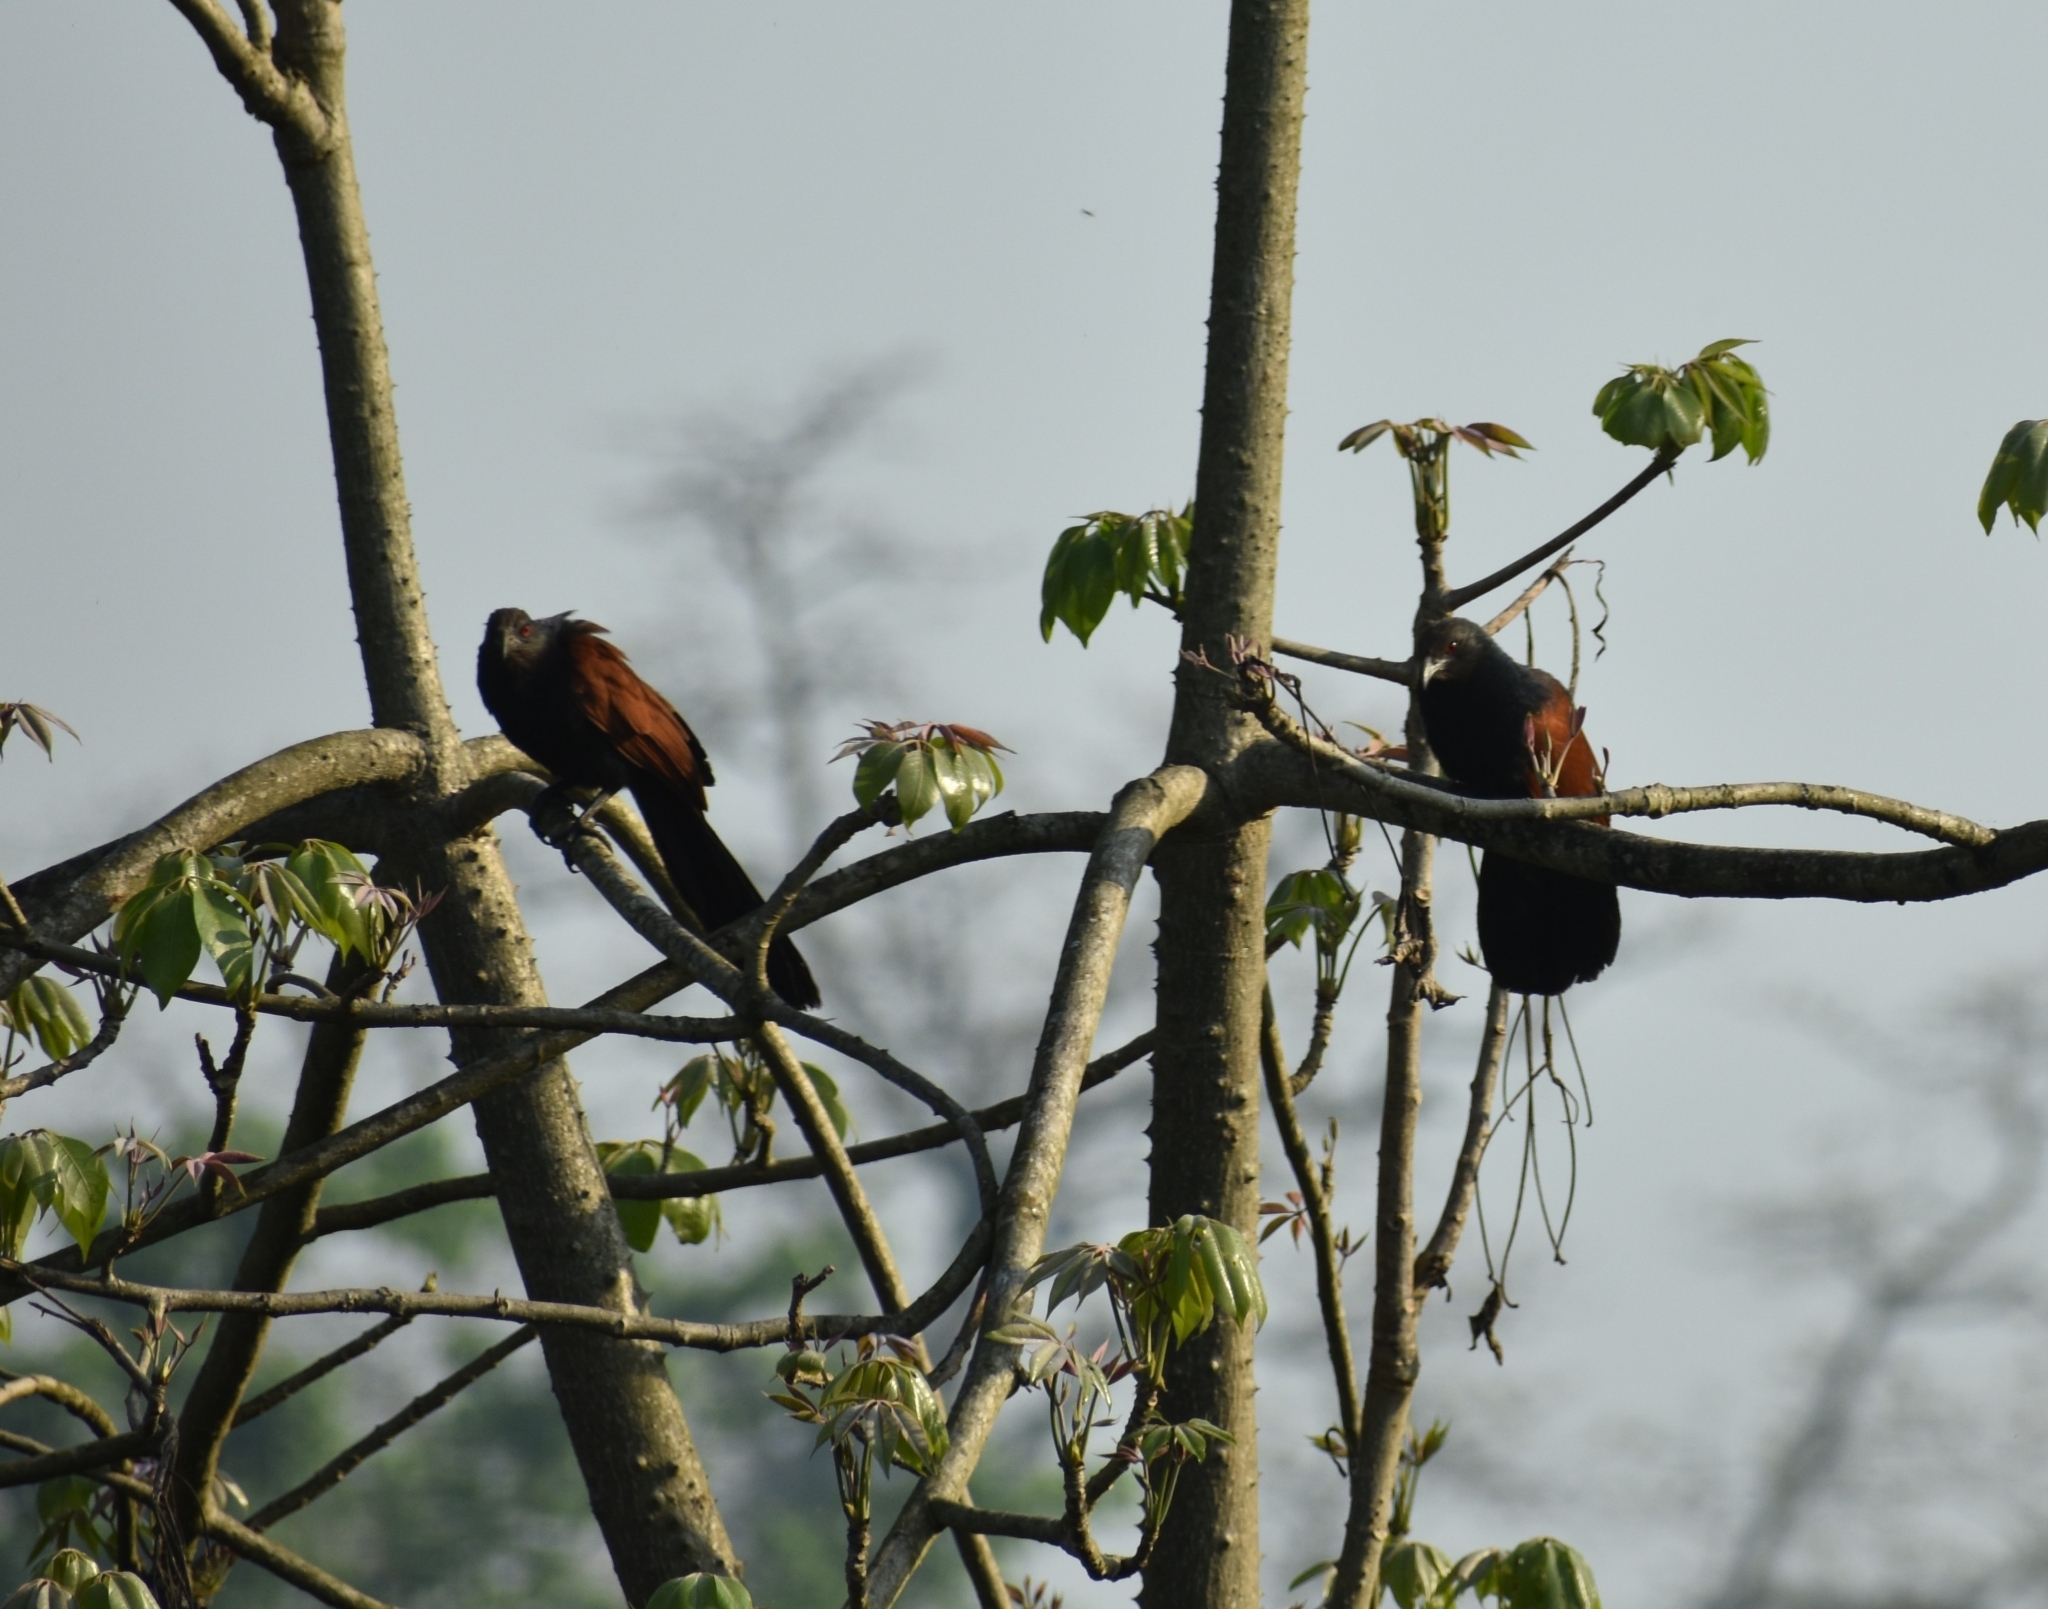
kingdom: Animalia
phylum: Chordata
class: Aves
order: Cuculiformes
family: Cuculidae
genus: Centropus
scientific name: Centropus sinensis
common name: Greater coucal
